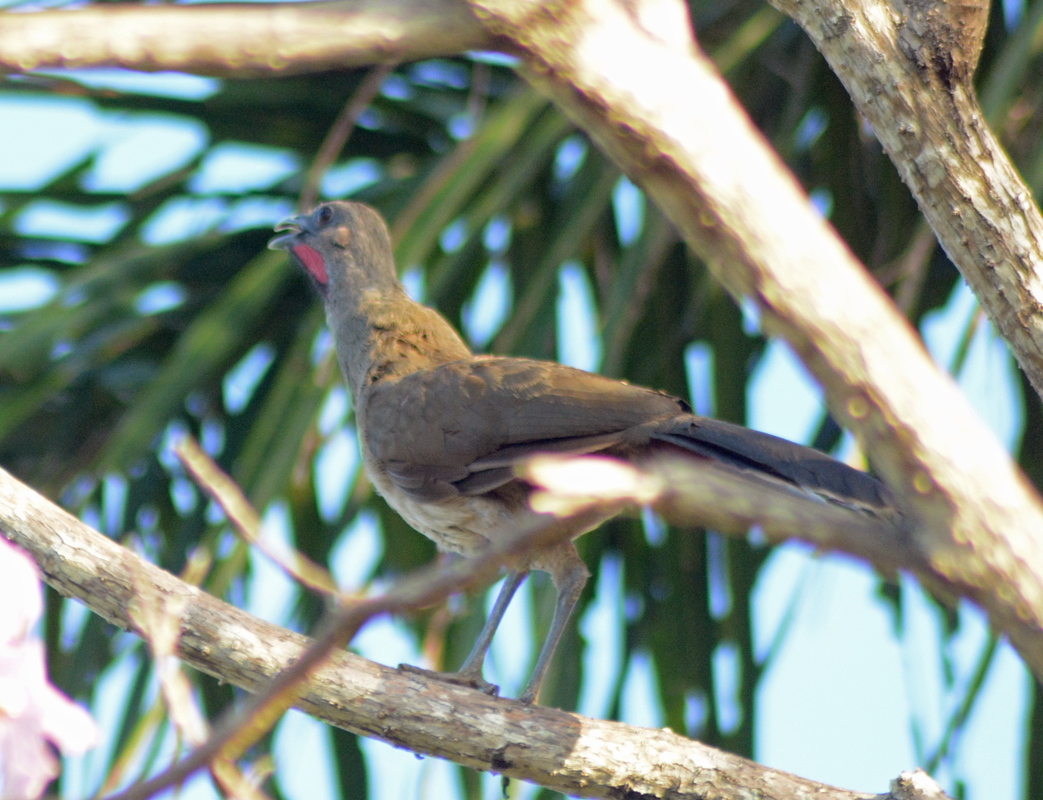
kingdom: Animalia
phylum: Chordata
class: Aves
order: Galliformes
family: Cracidae
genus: Ortalis
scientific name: Ortalis vetula
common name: Plain chachalaca
